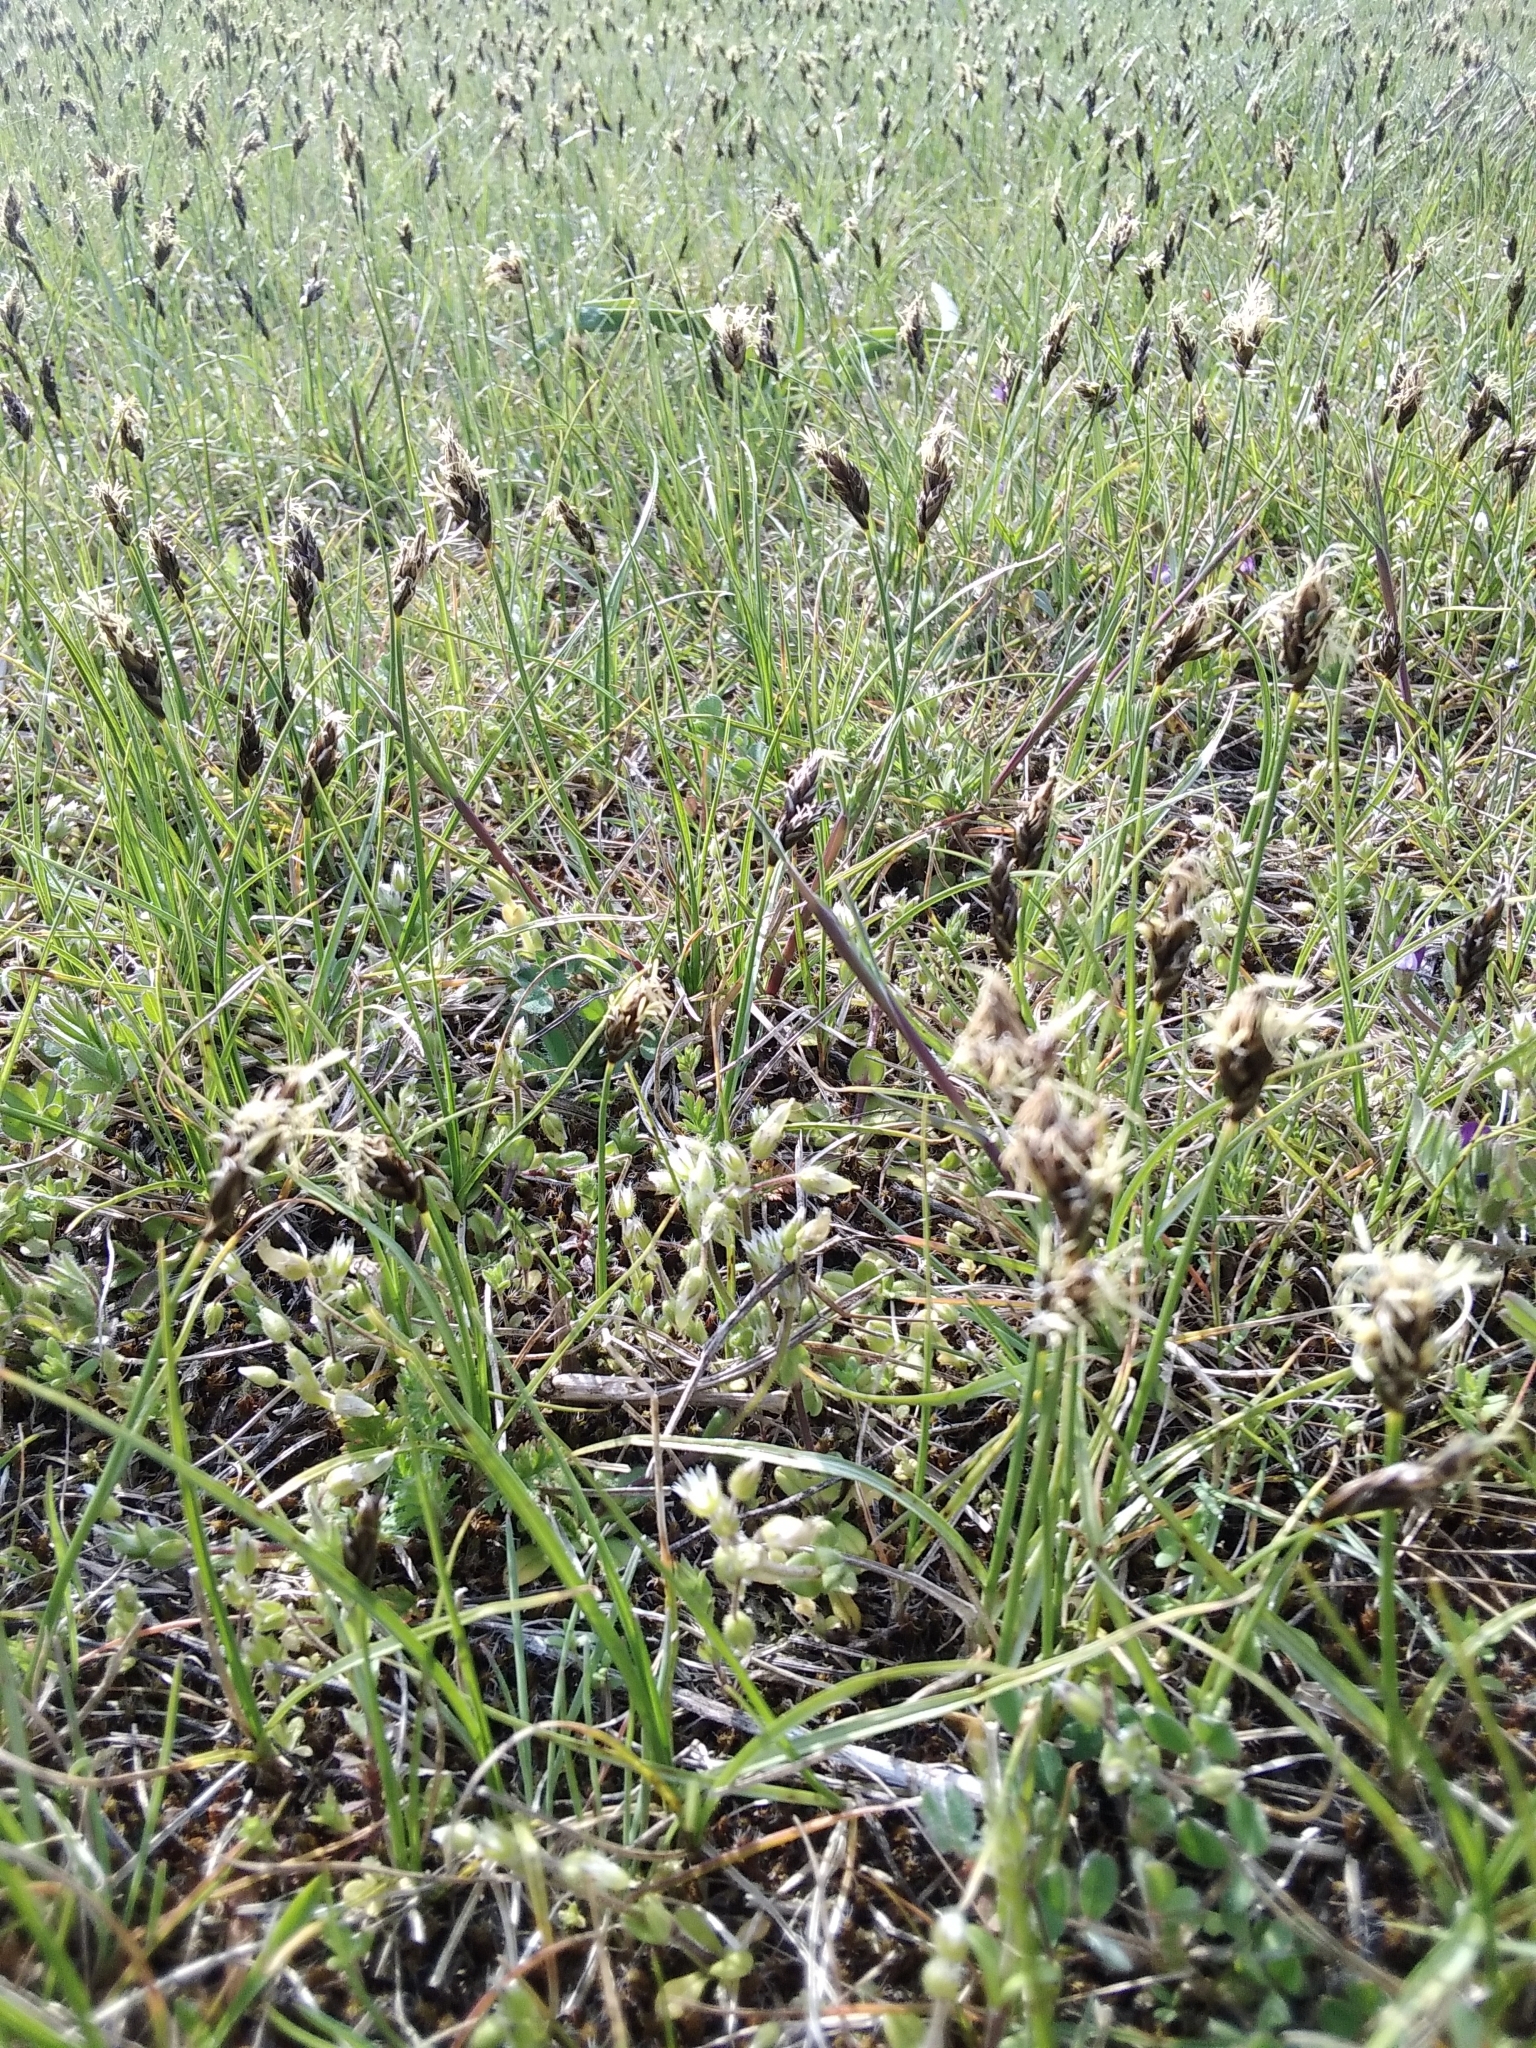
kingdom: Plantae
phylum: Tracheophyta
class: Liliopsida
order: Poales
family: Cyperaceae
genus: Carex
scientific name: Carex stenophylla
